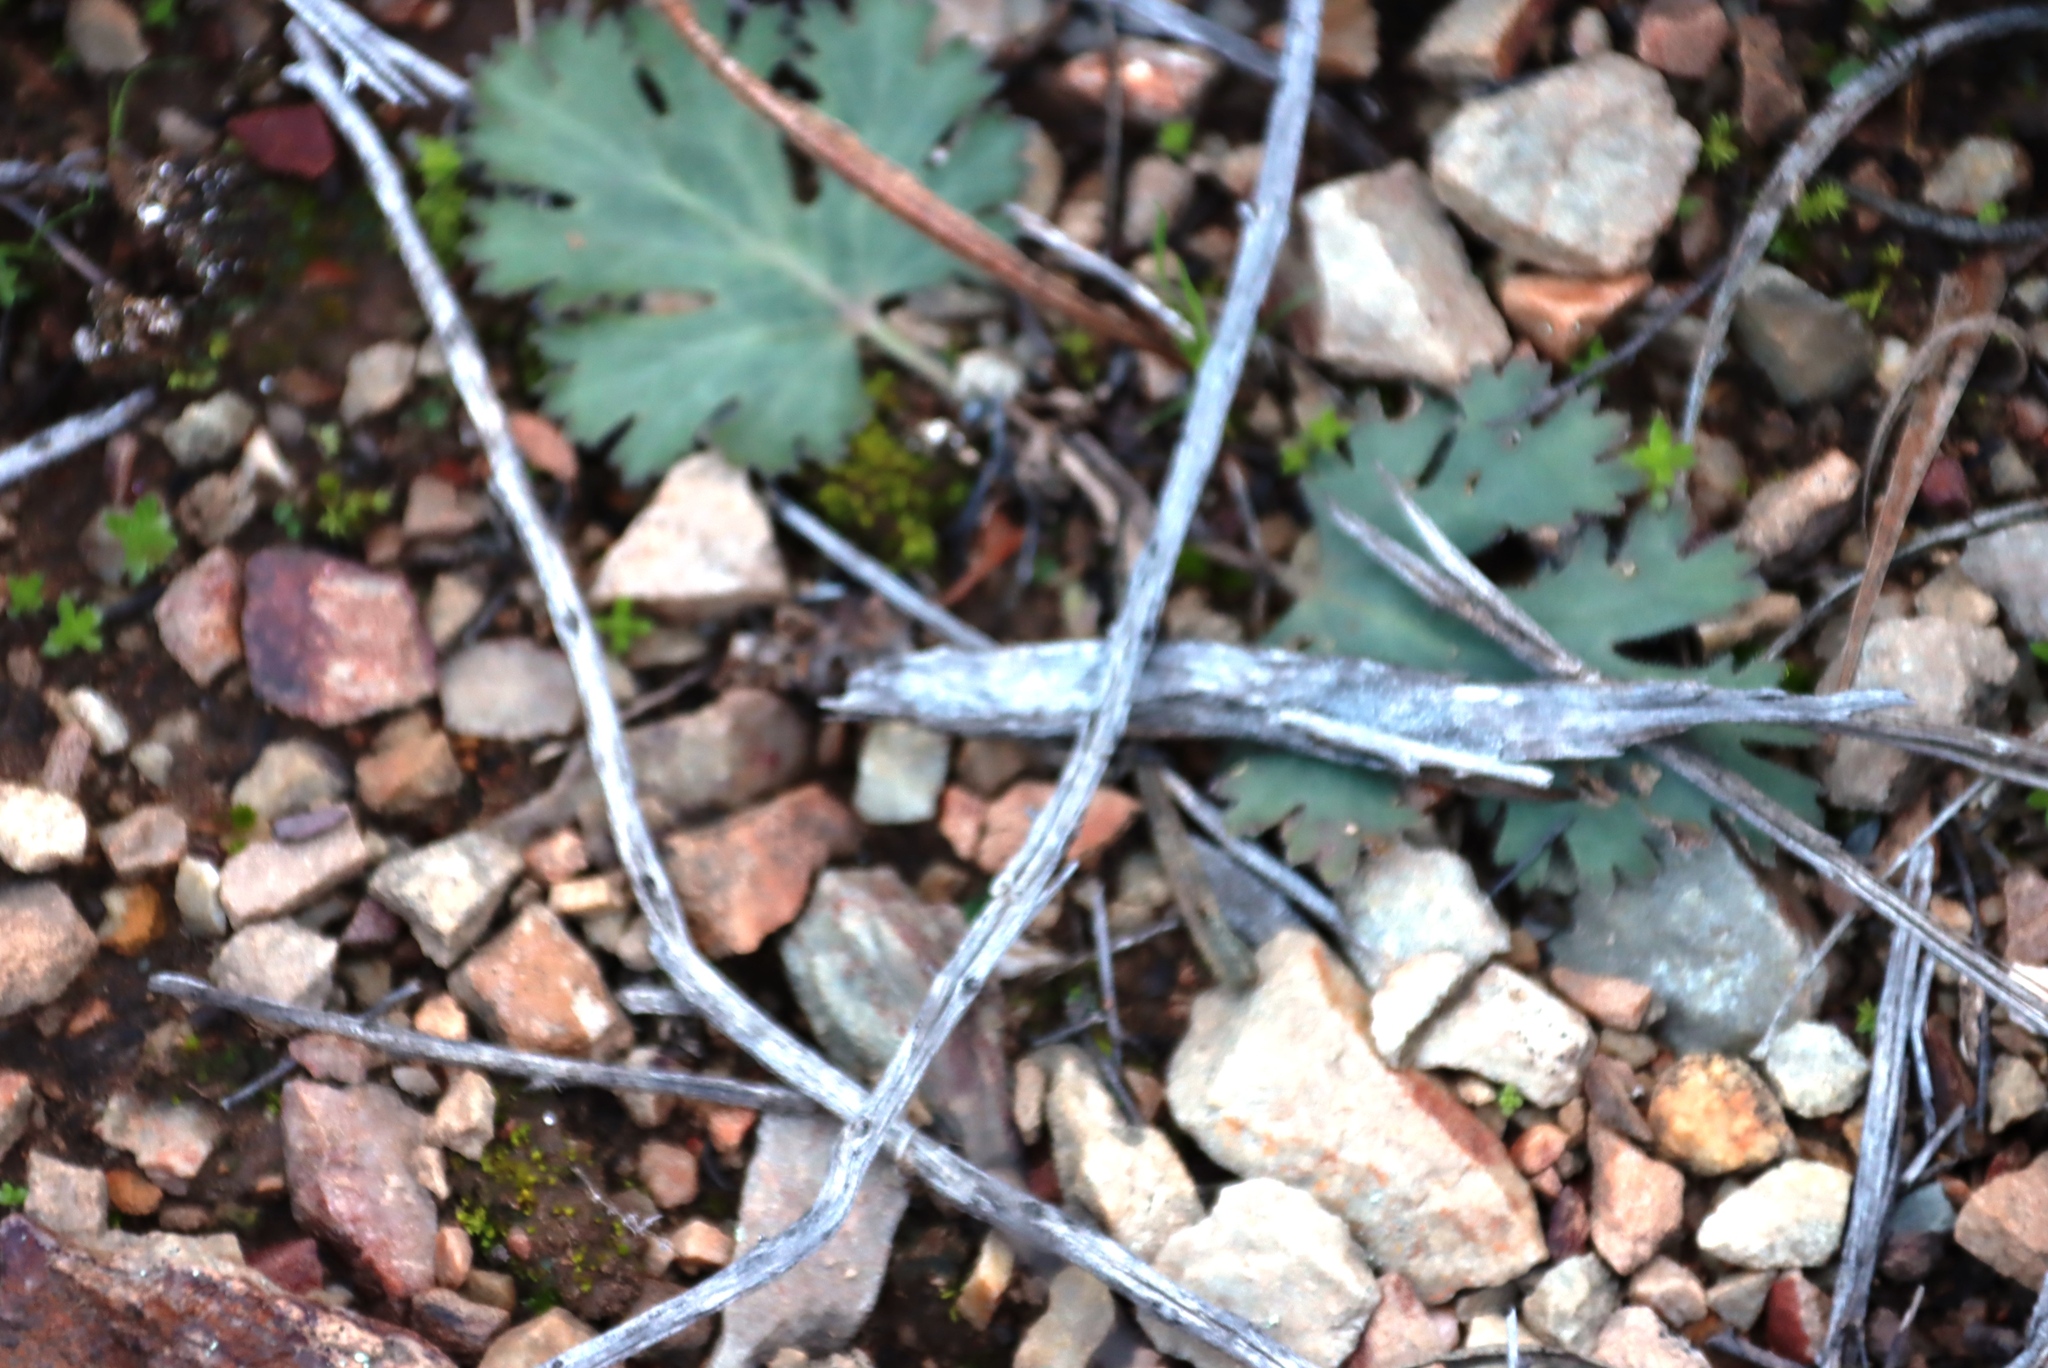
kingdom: Plantae
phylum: Tracheophyta
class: Magnoliopsida
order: Geraniales
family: Geraniaceae
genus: Pelargonium
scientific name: Pelargonium pulverulentum
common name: Powdered-leaf pelargonium
